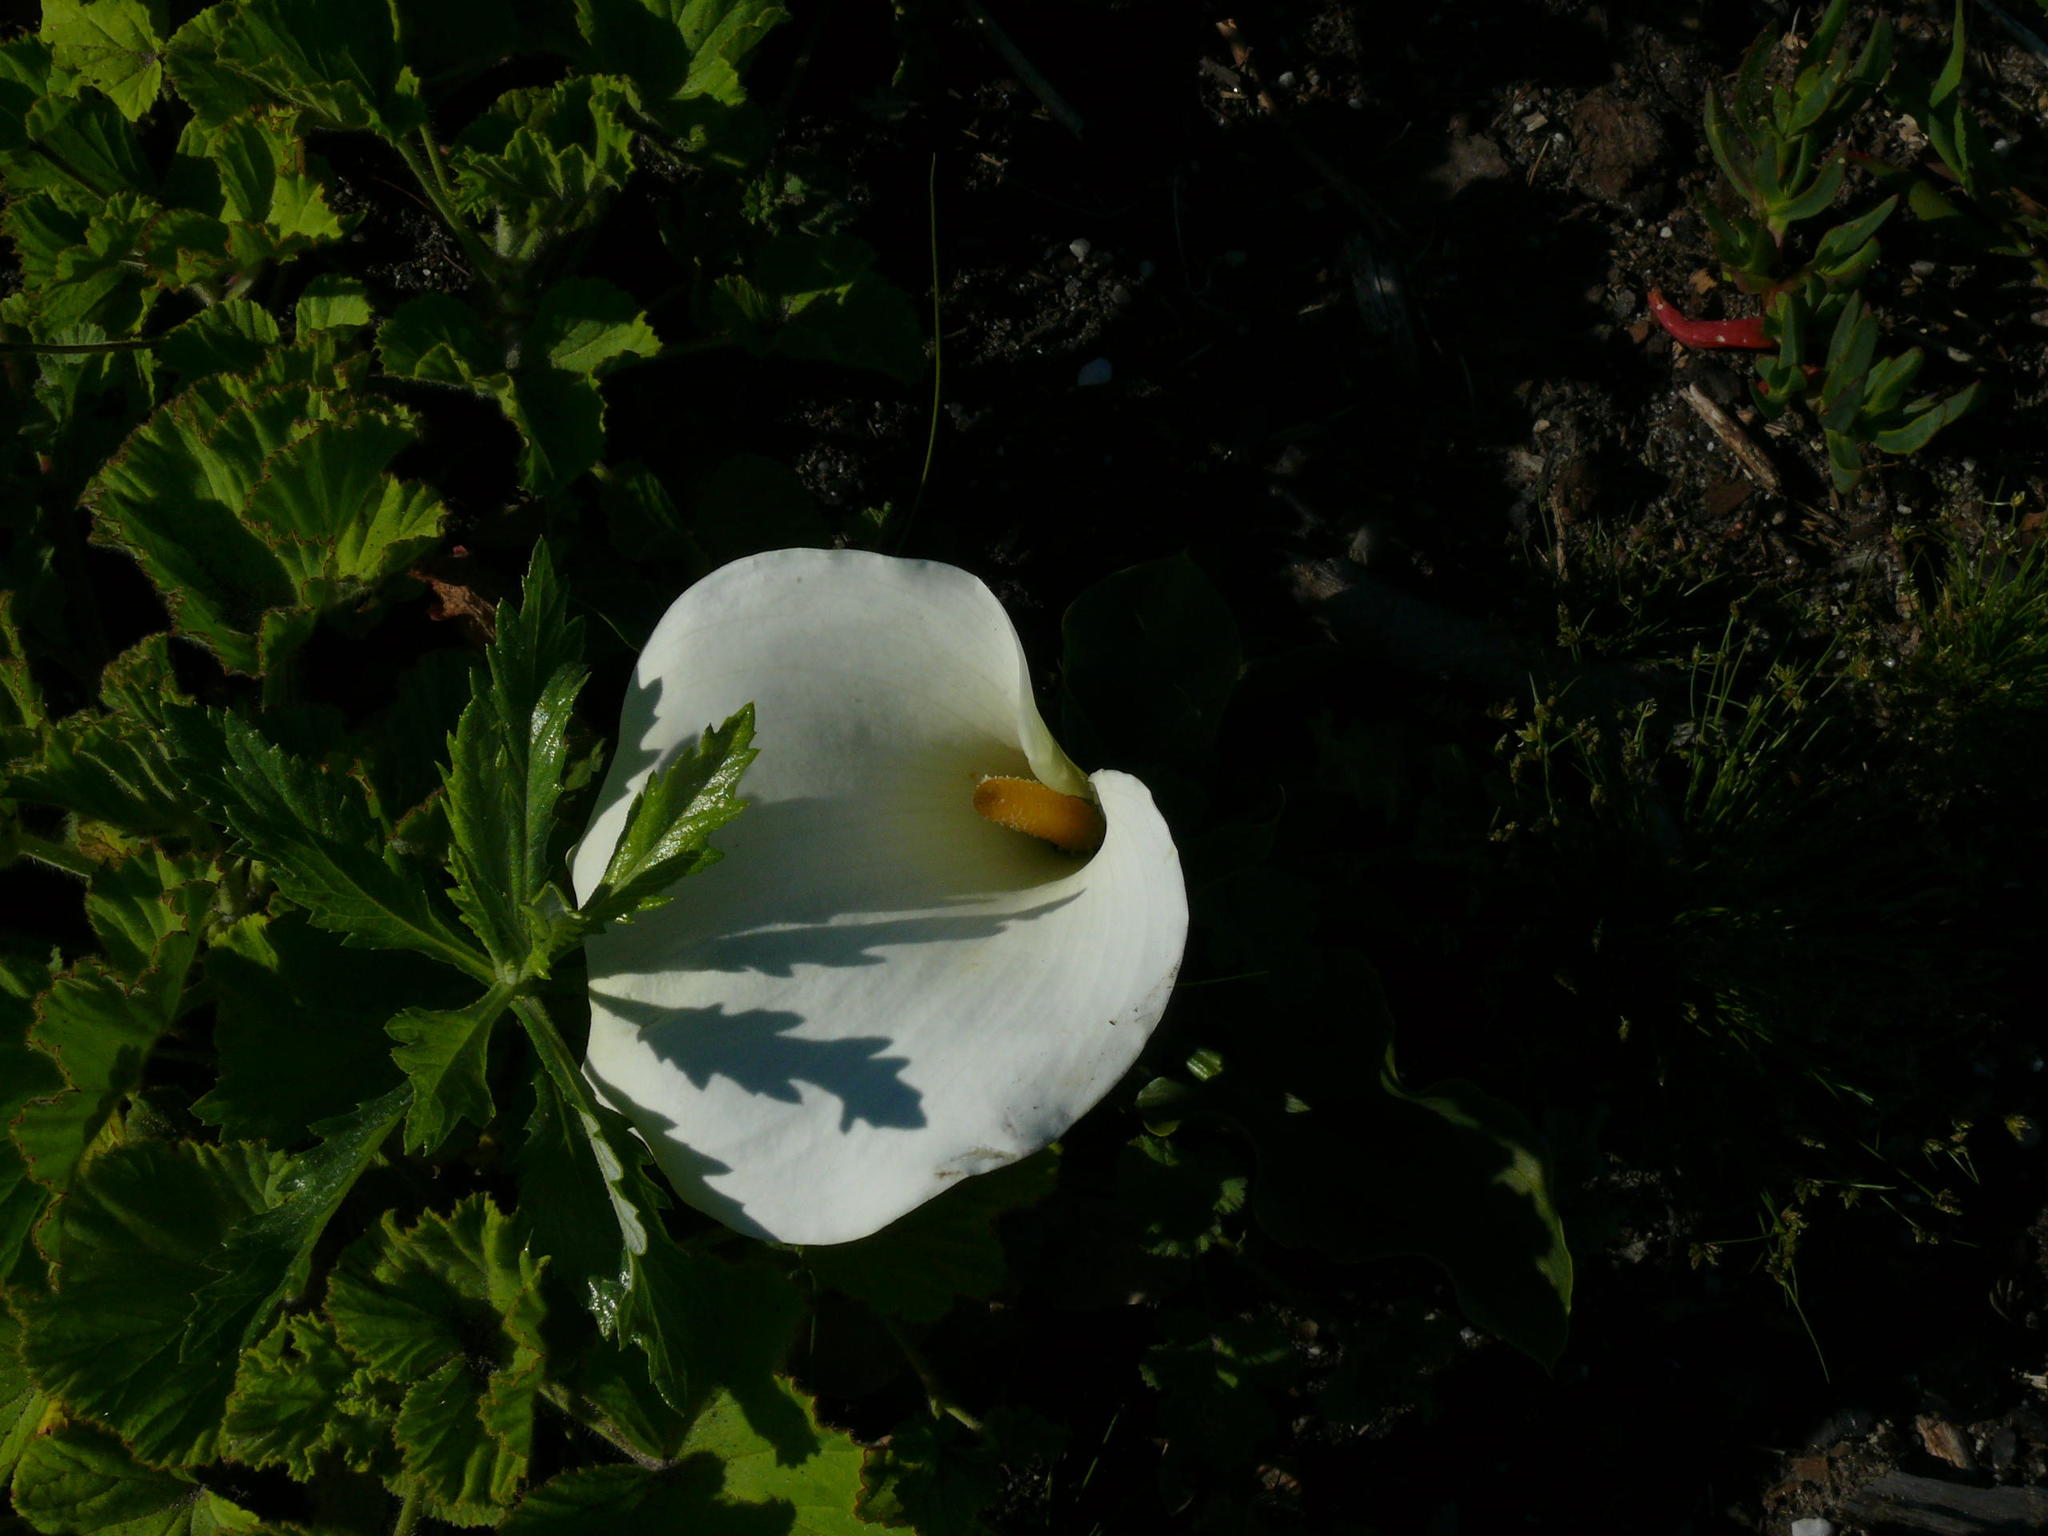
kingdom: Plantae
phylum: Tracheophyta
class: Liliopsida
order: Alismatales
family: Araceae
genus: Zantedeschia
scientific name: Zantedeschia aethiopica
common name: Altar-lily
